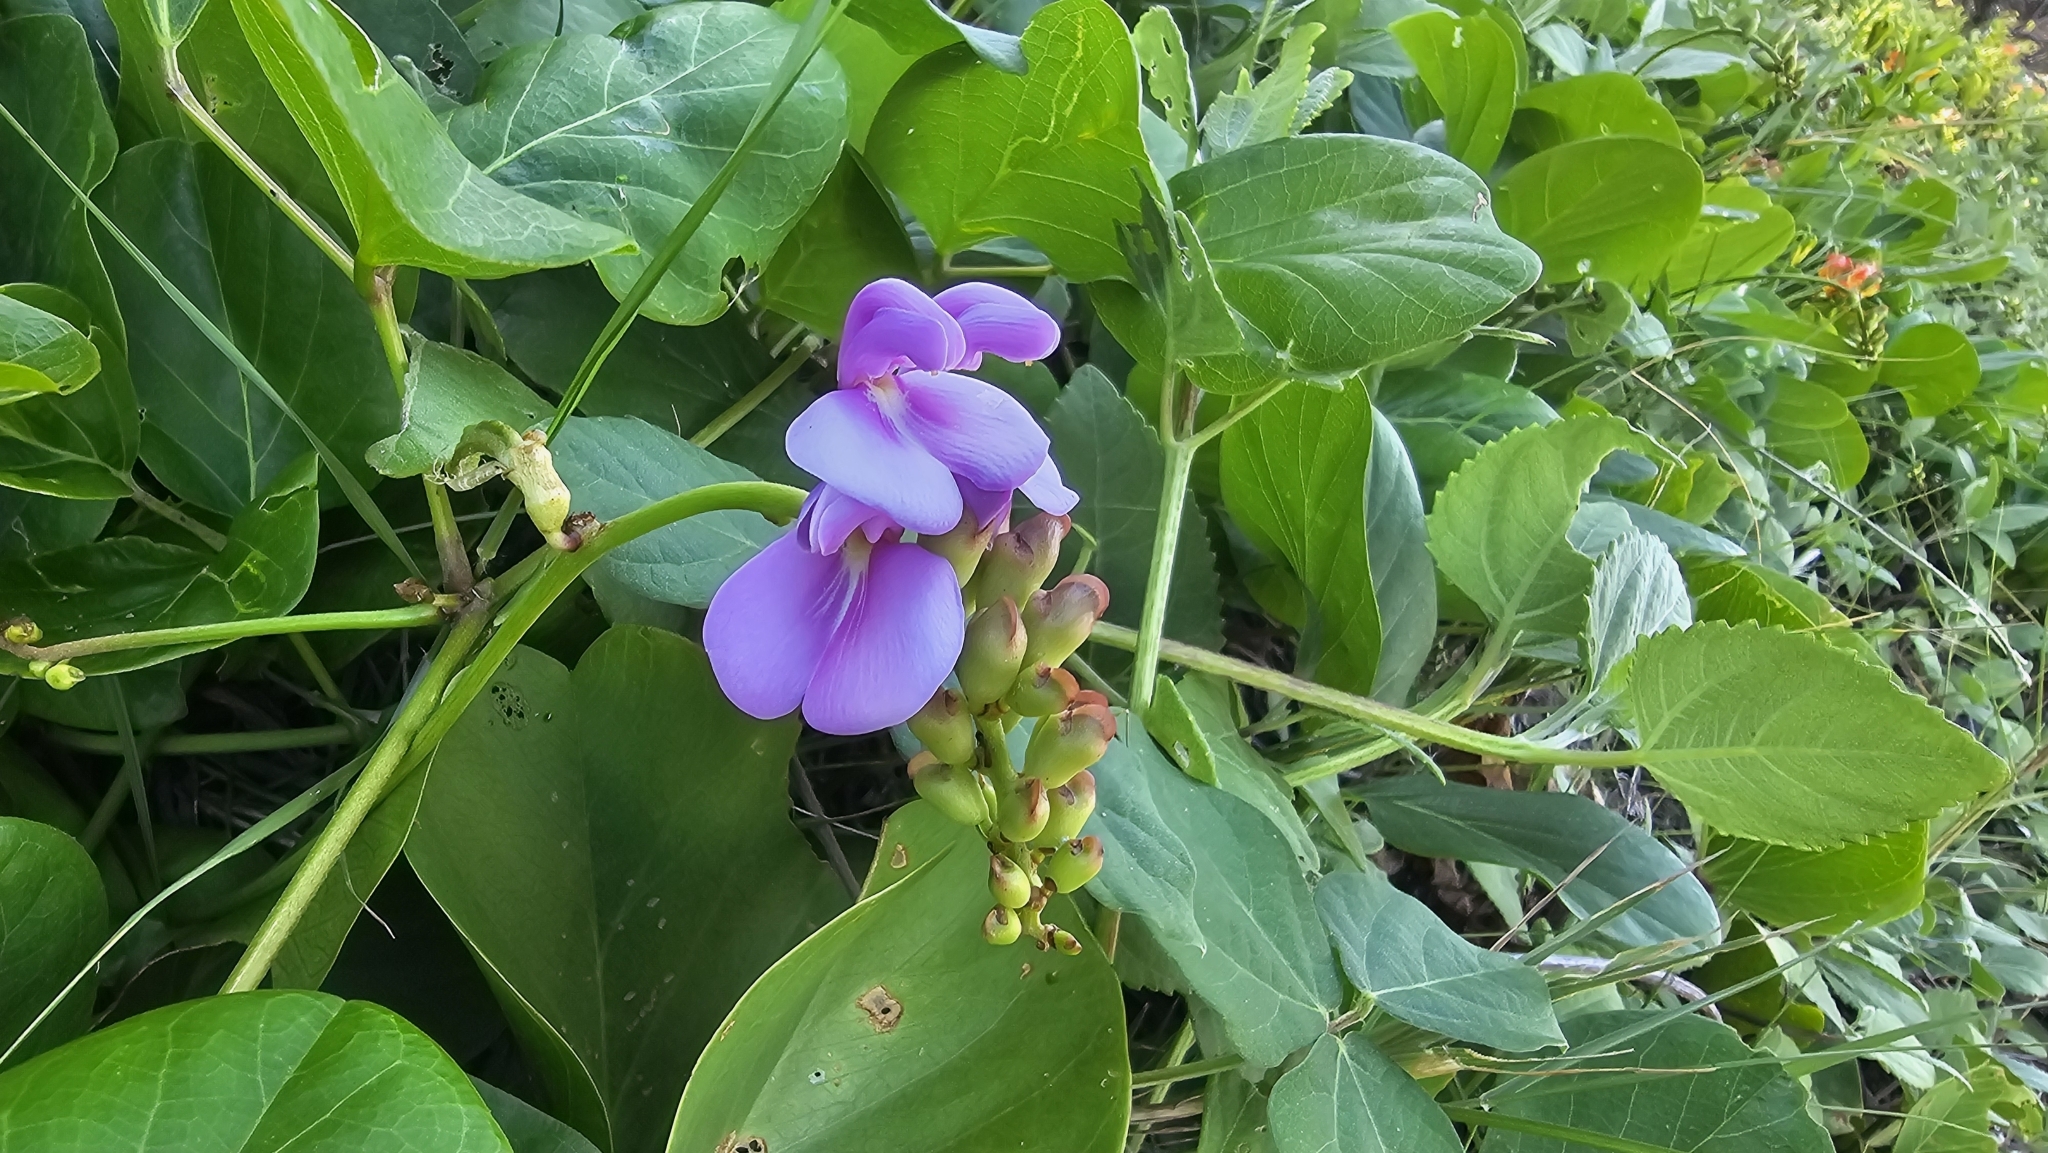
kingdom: Plantae
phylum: Tracheophyta
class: Magnoliopsida
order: Fabales
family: Fabaceae
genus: Canavalia
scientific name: Canavalia rosea
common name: Beach-bean
